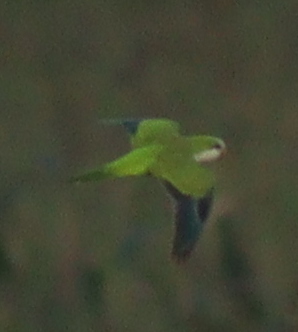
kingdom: Animalia
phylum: Chordata
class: Aves
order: Psittaciformes
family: Psittacidae
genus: Myiopsitta
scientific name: Myiopsitta monachus
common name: Monk parakeet
